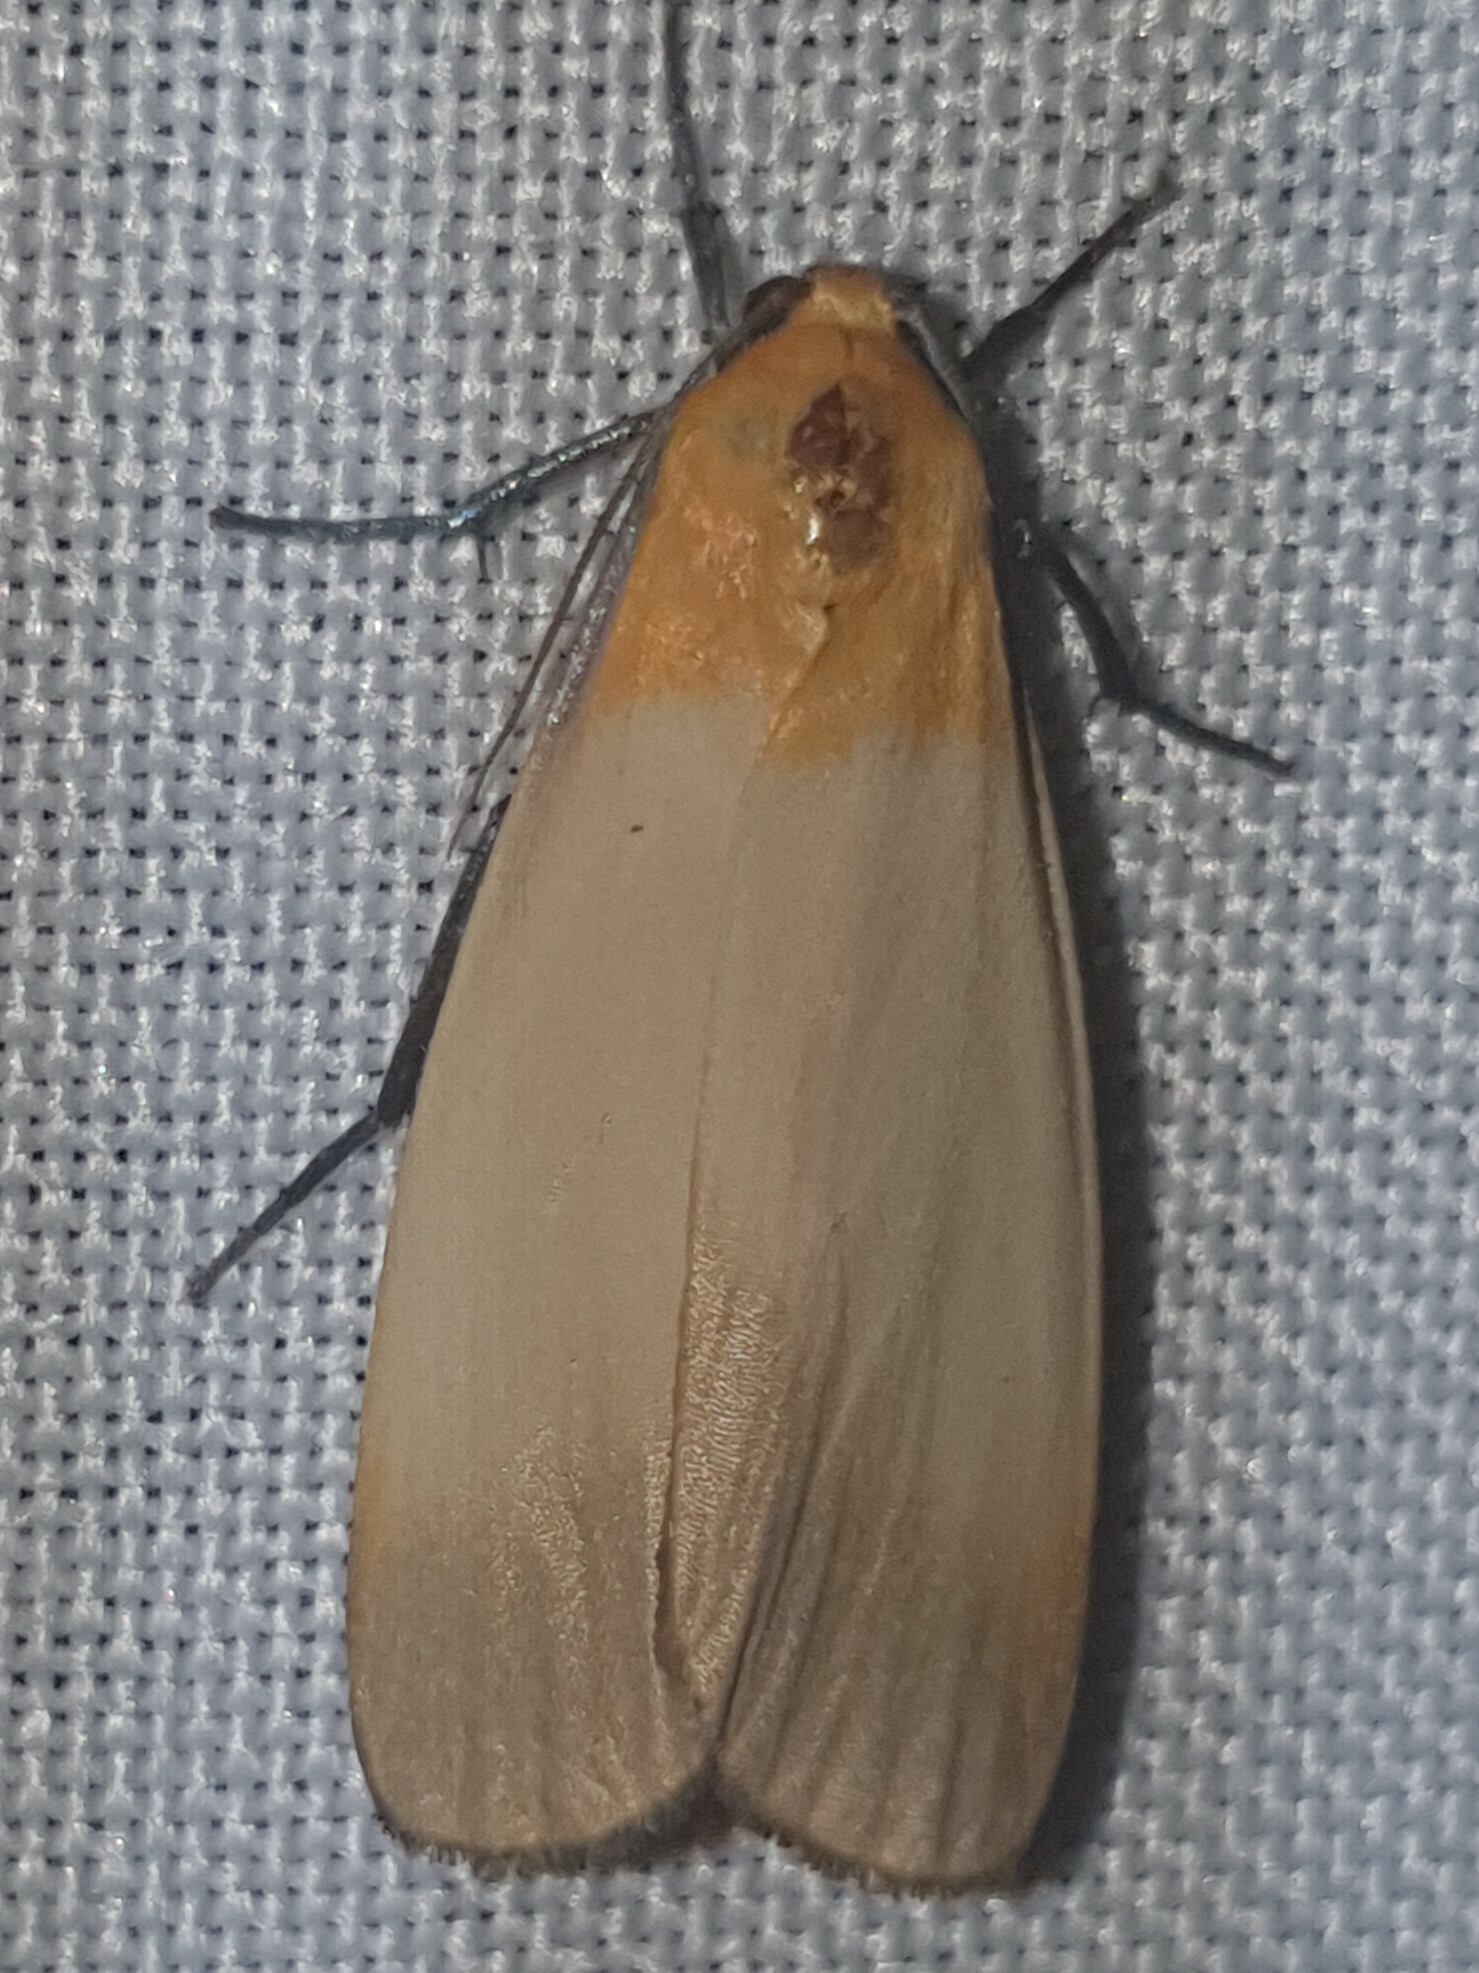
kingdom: Animalia
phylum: Arthropoda
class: Insecta
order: Lepidoptera
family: Erebidae
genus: Lithosia
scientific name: Lithosia quadra
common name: Four-spotted footman
